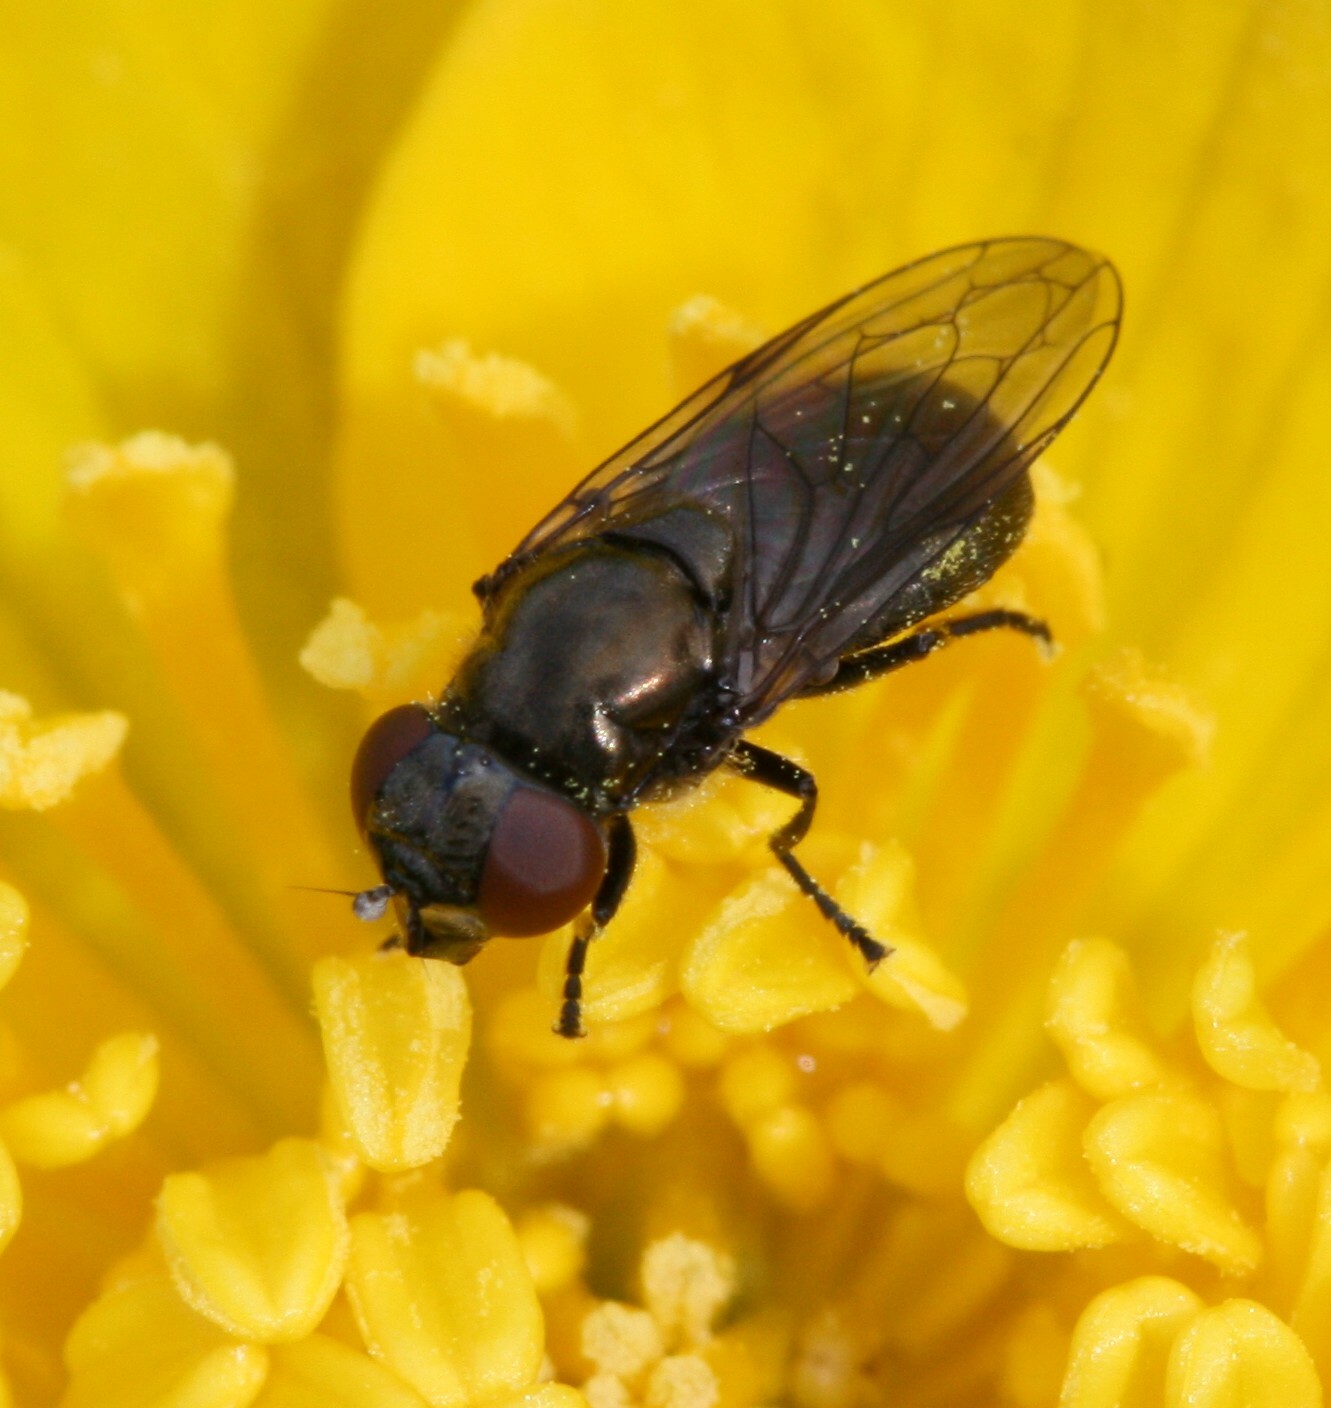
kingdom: Animalia
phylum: Arthropoda
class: Insecta
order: Diptera
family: Syrphidae
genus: Melanogaster
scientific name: Melanogaster
